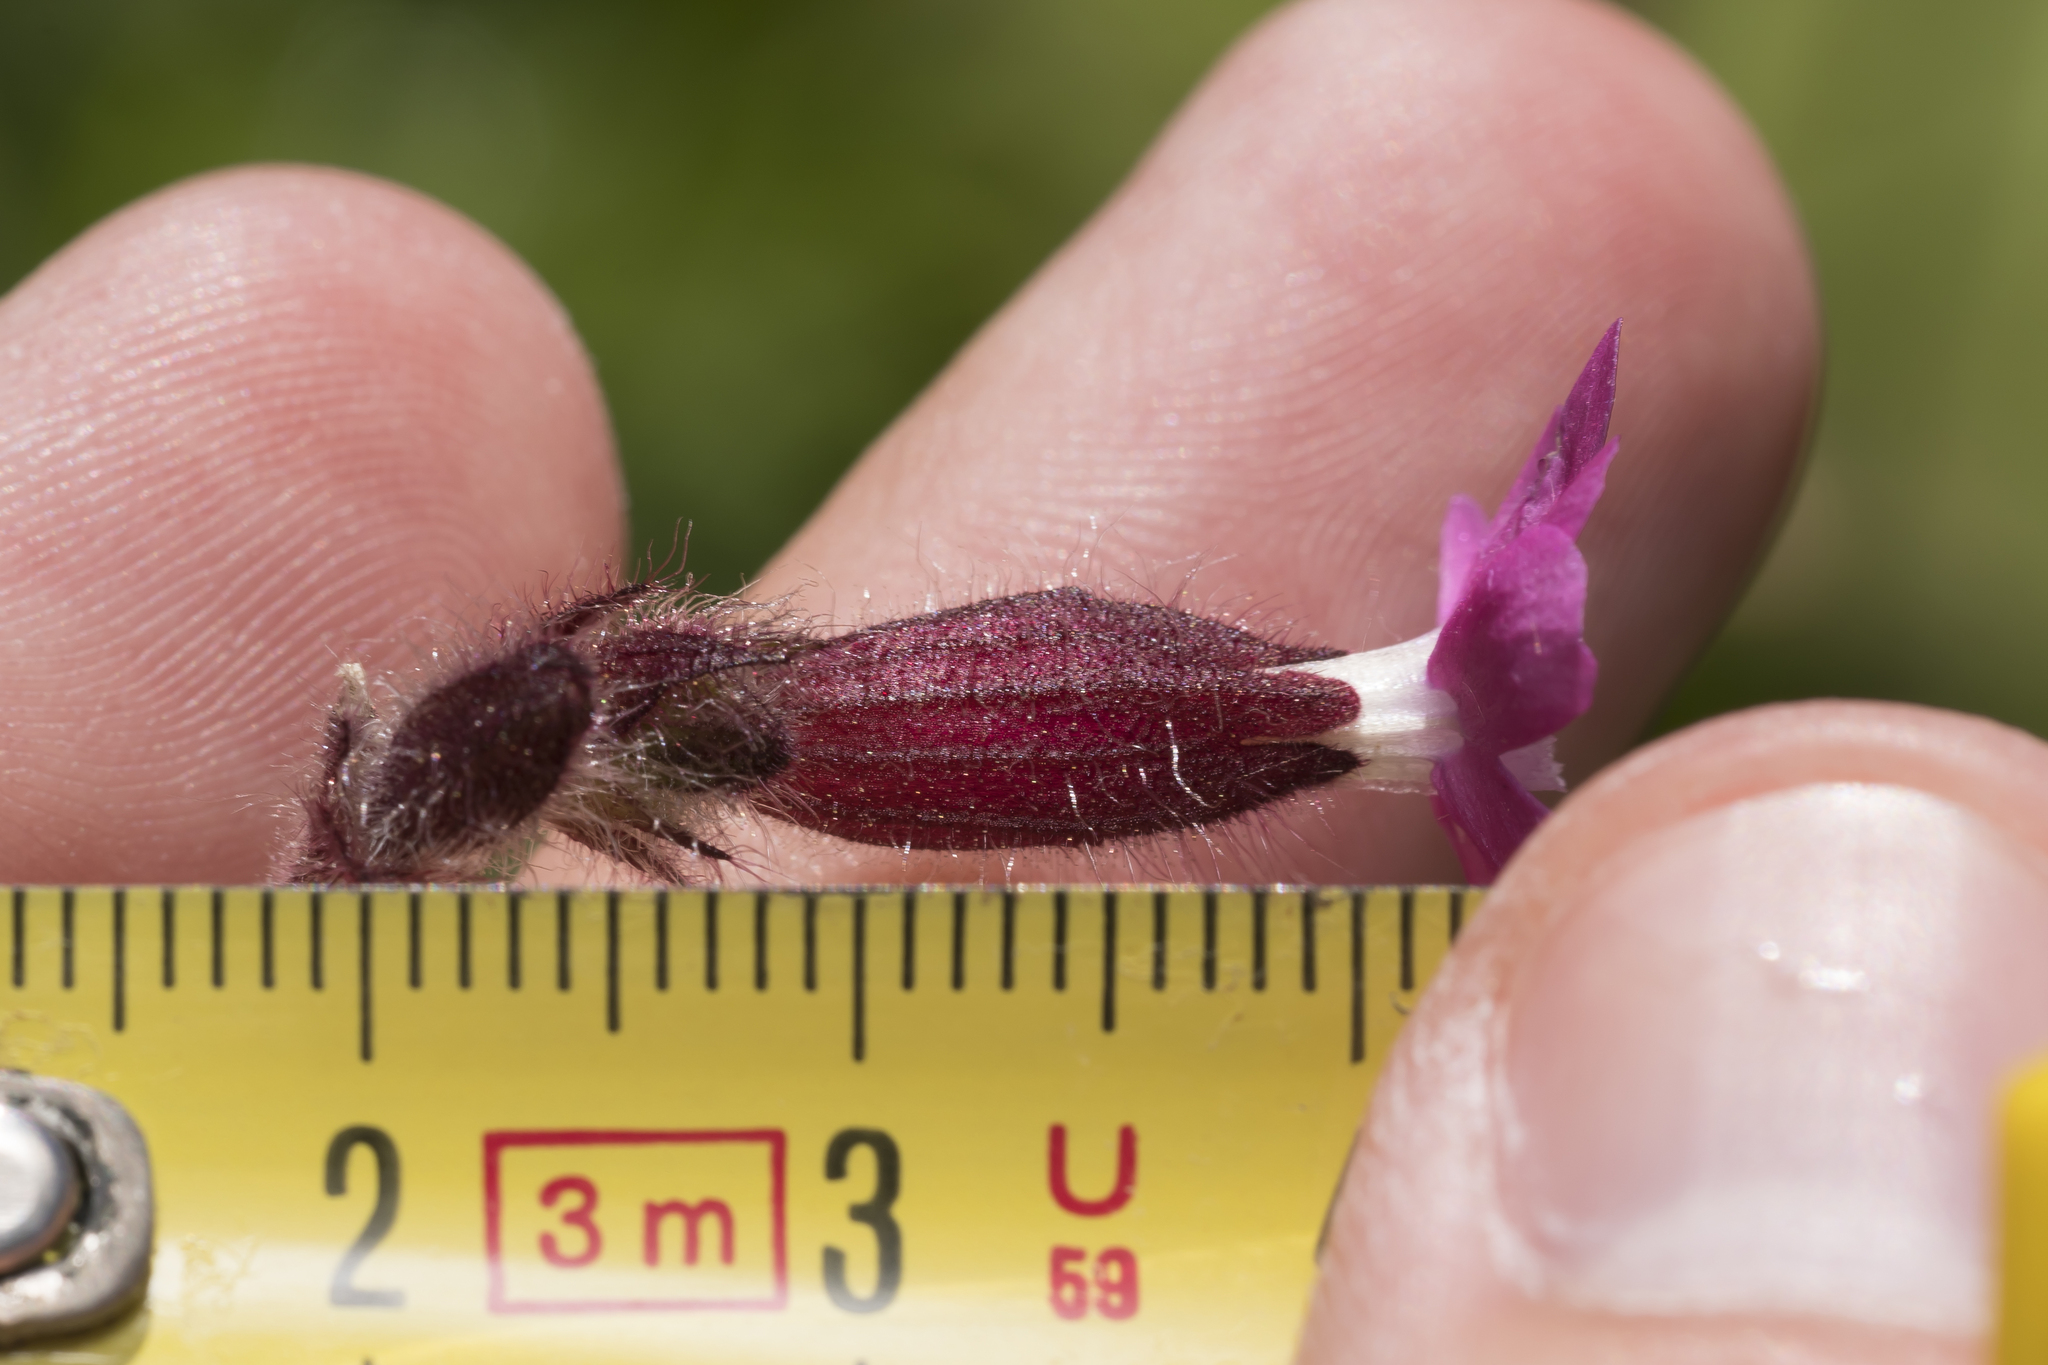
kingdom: Plantae
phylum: Tracheophyta
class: Magnoliopsida
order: Caryophyllales
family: Caryophyllaceae
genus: Silene
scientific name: Silene dioica
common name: Red campion
